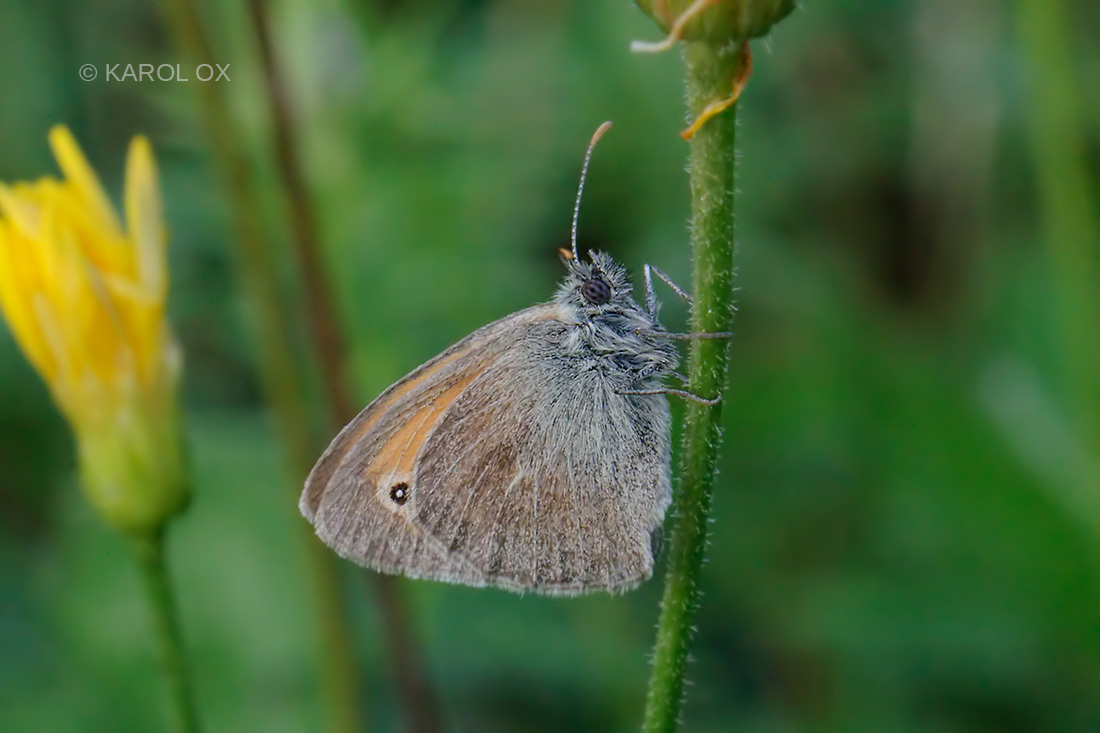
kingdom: Animalia
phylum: Arthropoda
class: Insecta
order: Lepidoptera
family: Nymphalidae
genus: Coenonympha
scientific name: Coenonympha pamphilus
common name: Small heath
